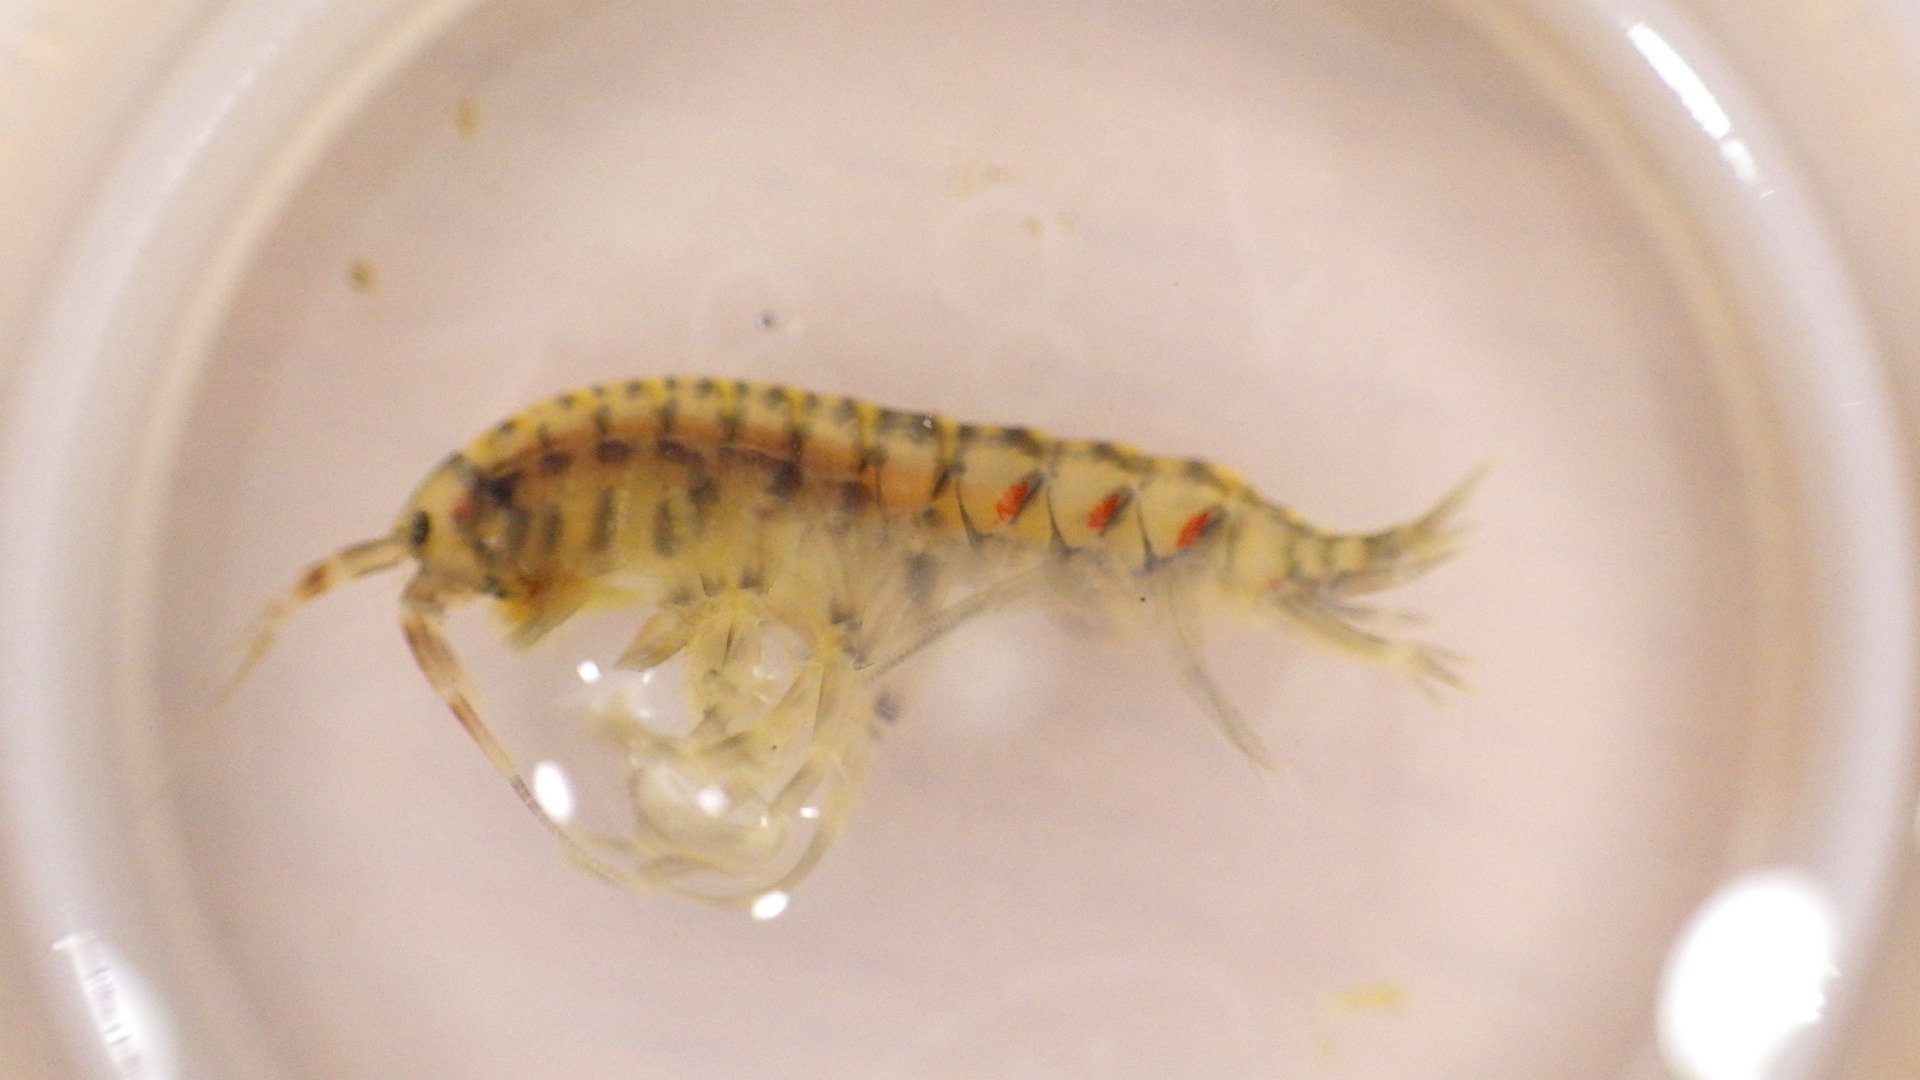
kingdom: Animalia
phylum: Arthropoda
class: Malacostraca
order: Amphipoda
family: Gammaridae
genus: Gammarus
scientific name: Gammarus fasciatus
